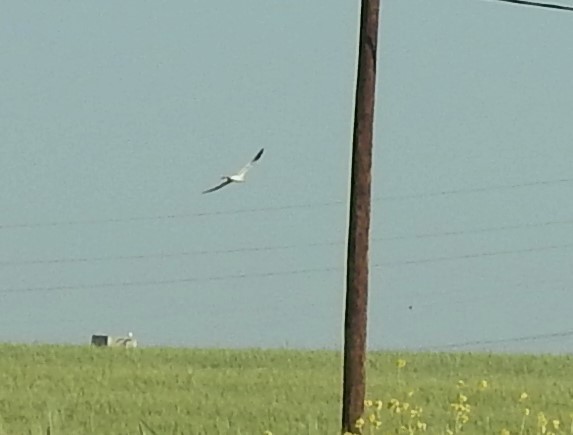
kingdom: Animalia
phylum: Chordata
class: Aves
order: Accipitriformes
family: Accipitridae
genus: Circus
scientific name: Circus cyaneus
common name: Hen harrier
